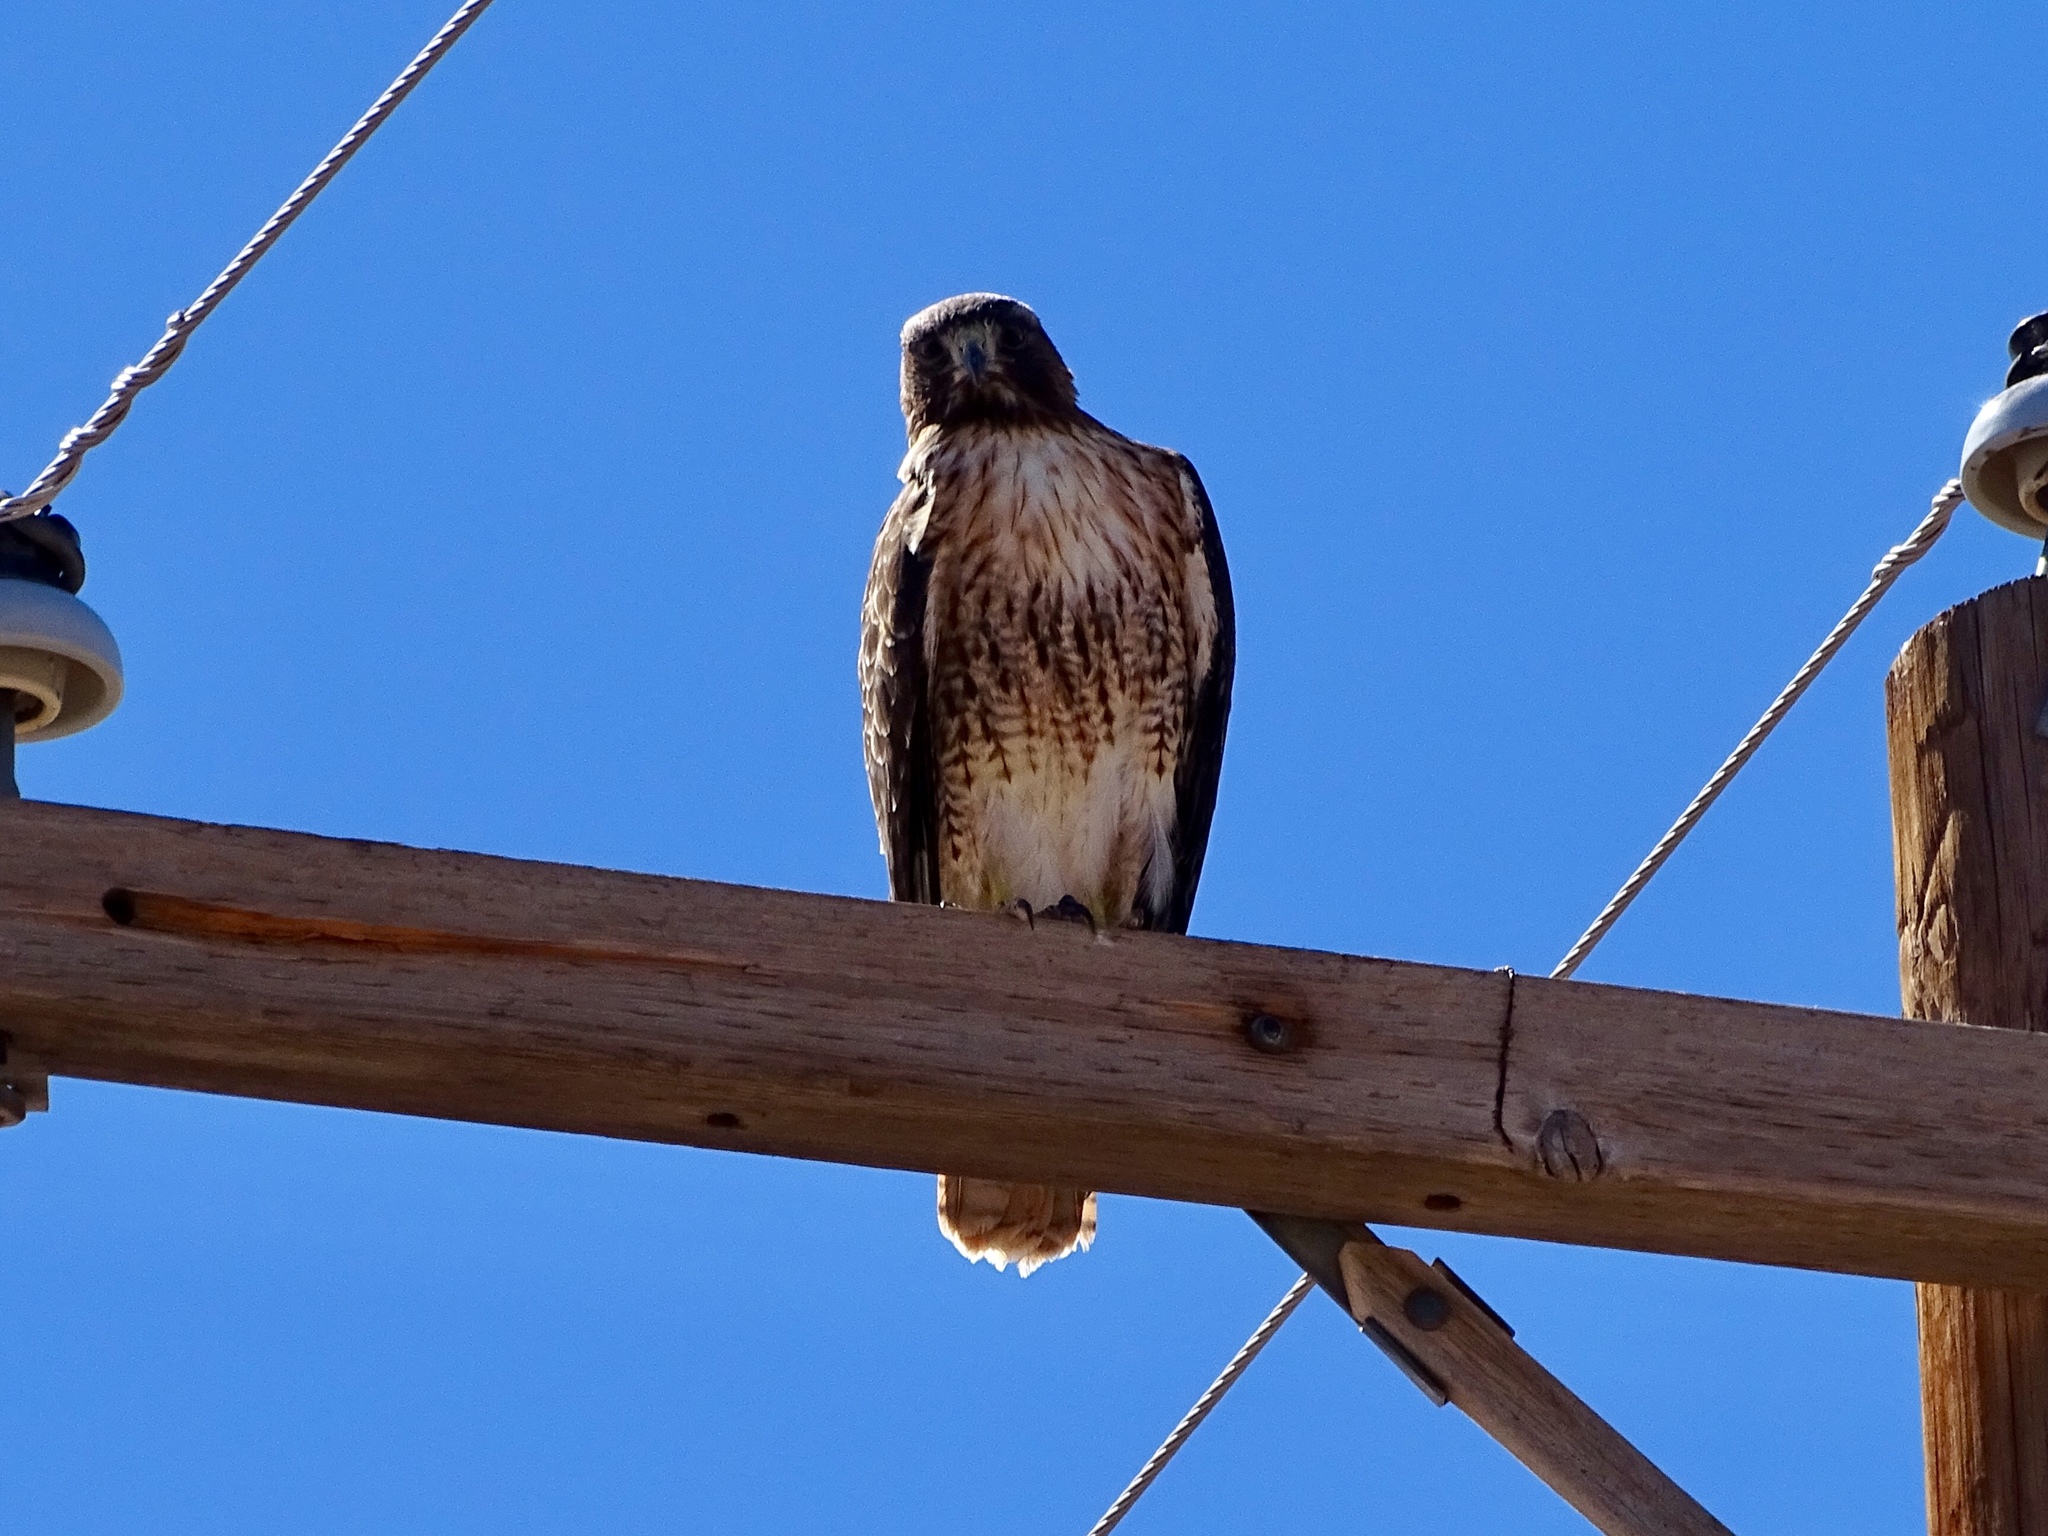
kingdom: Animalia
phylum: Chordata
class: Aves
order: Accipitriformes
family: Accipitridae
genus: Buteo
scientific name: Buteo jamaicensis
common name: Red-tailed hawk
